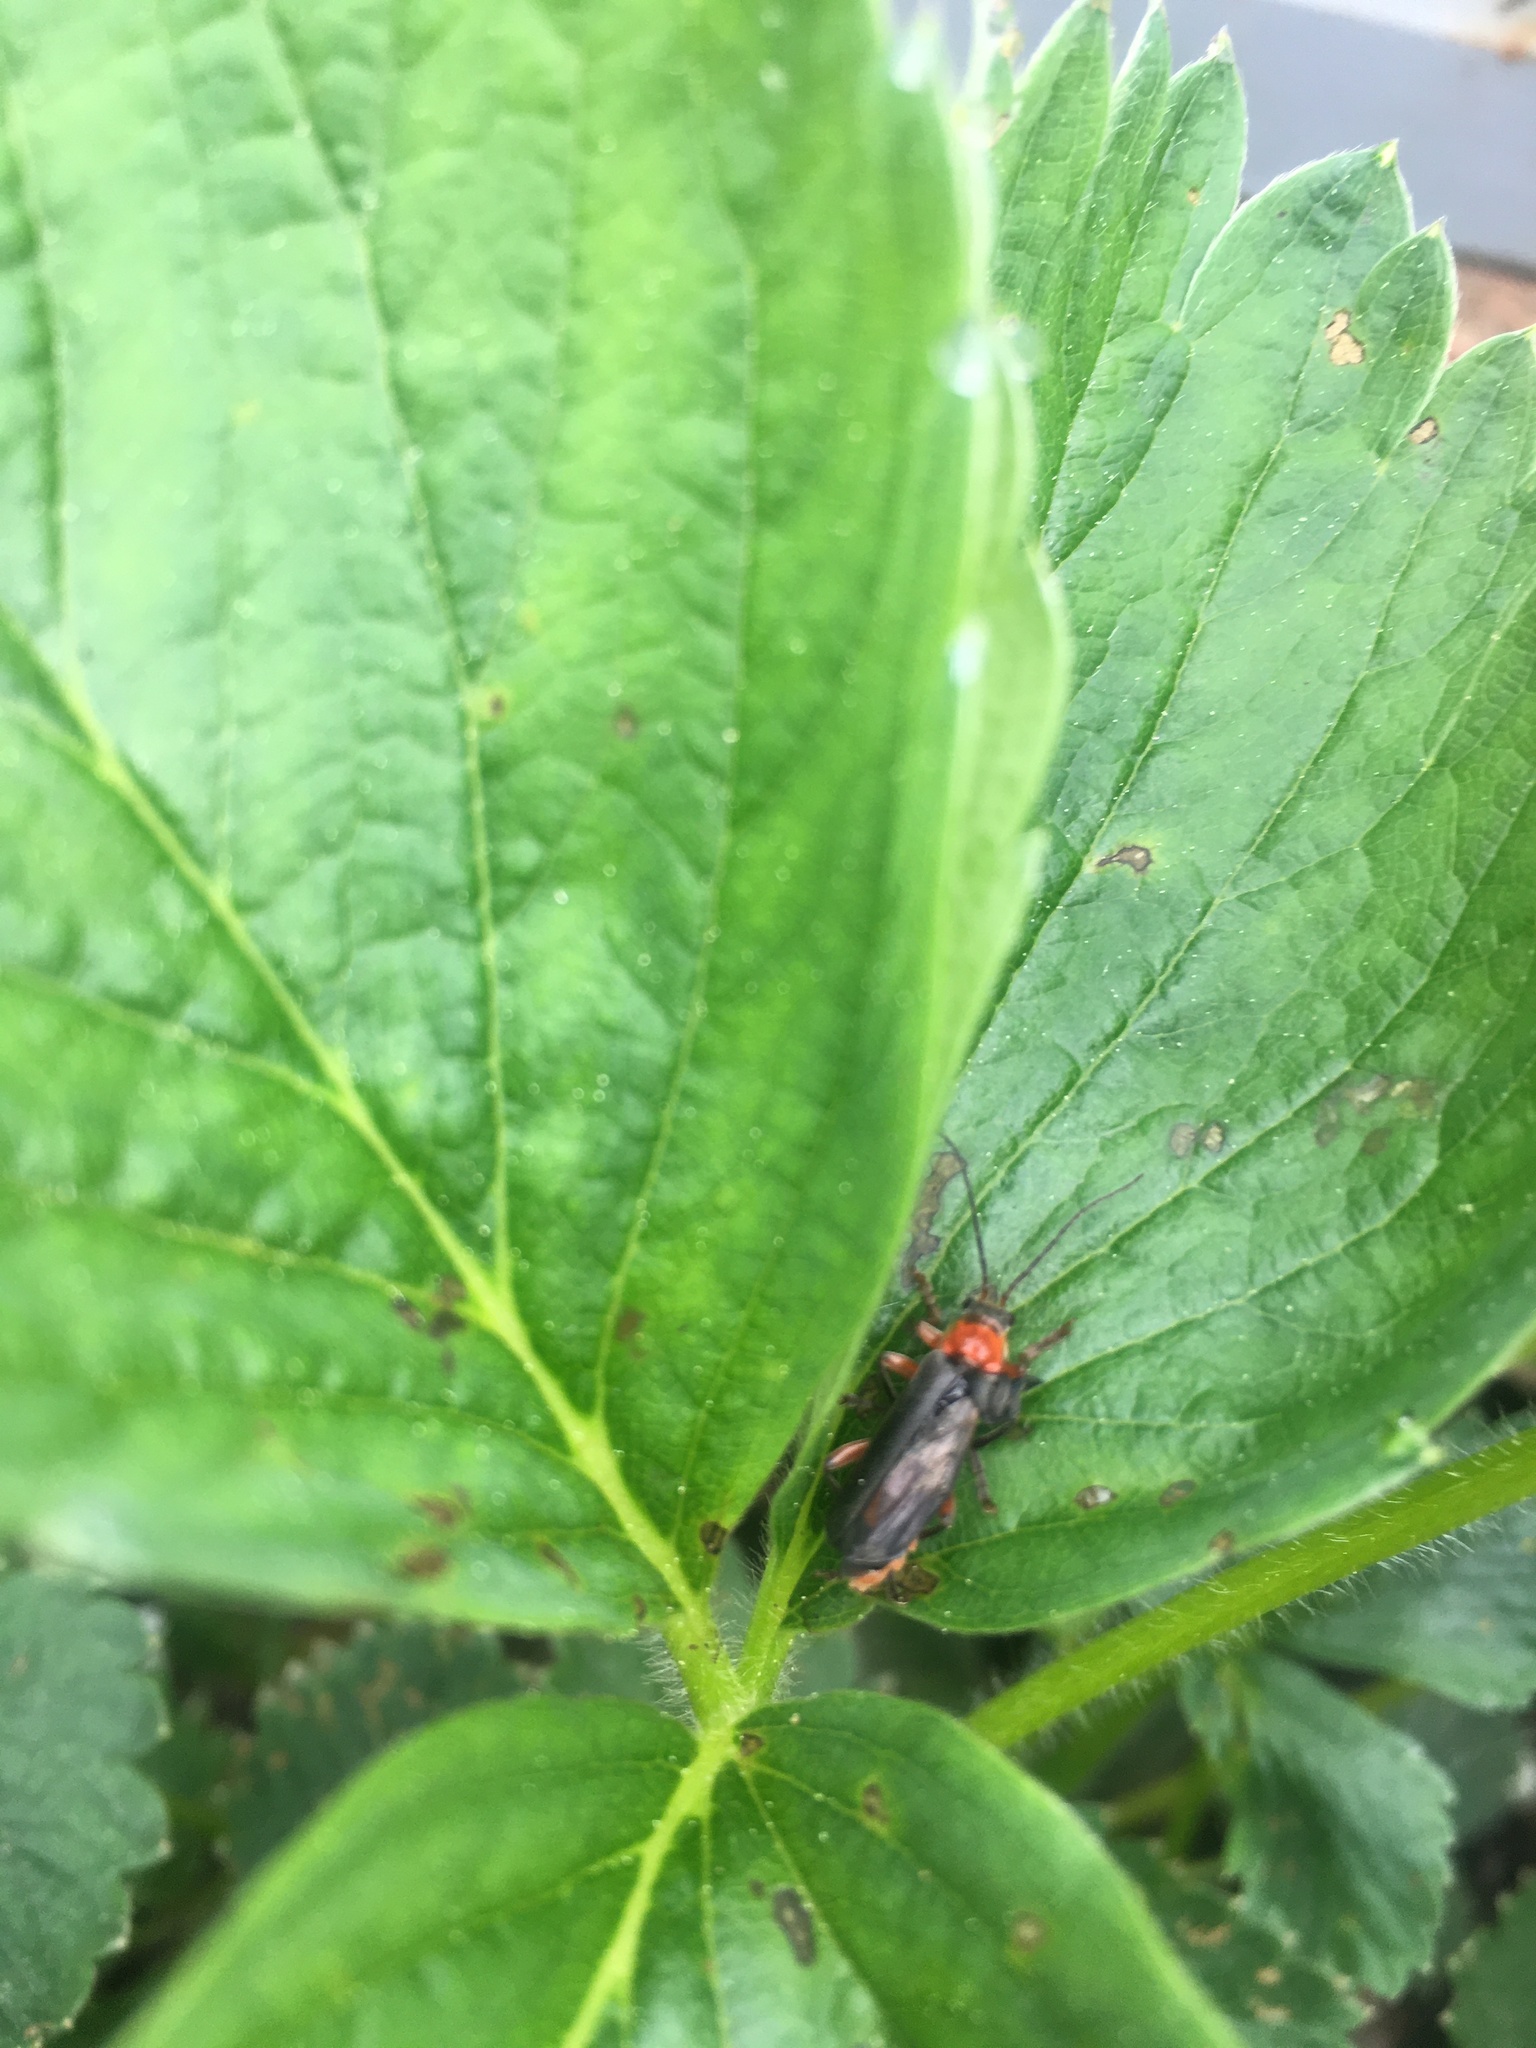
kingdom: Animalia
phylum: Arthropoda
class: Insecta
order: Coleoptera
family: Cantharidae
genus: Cantharis
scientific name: Cantharis pellucida
